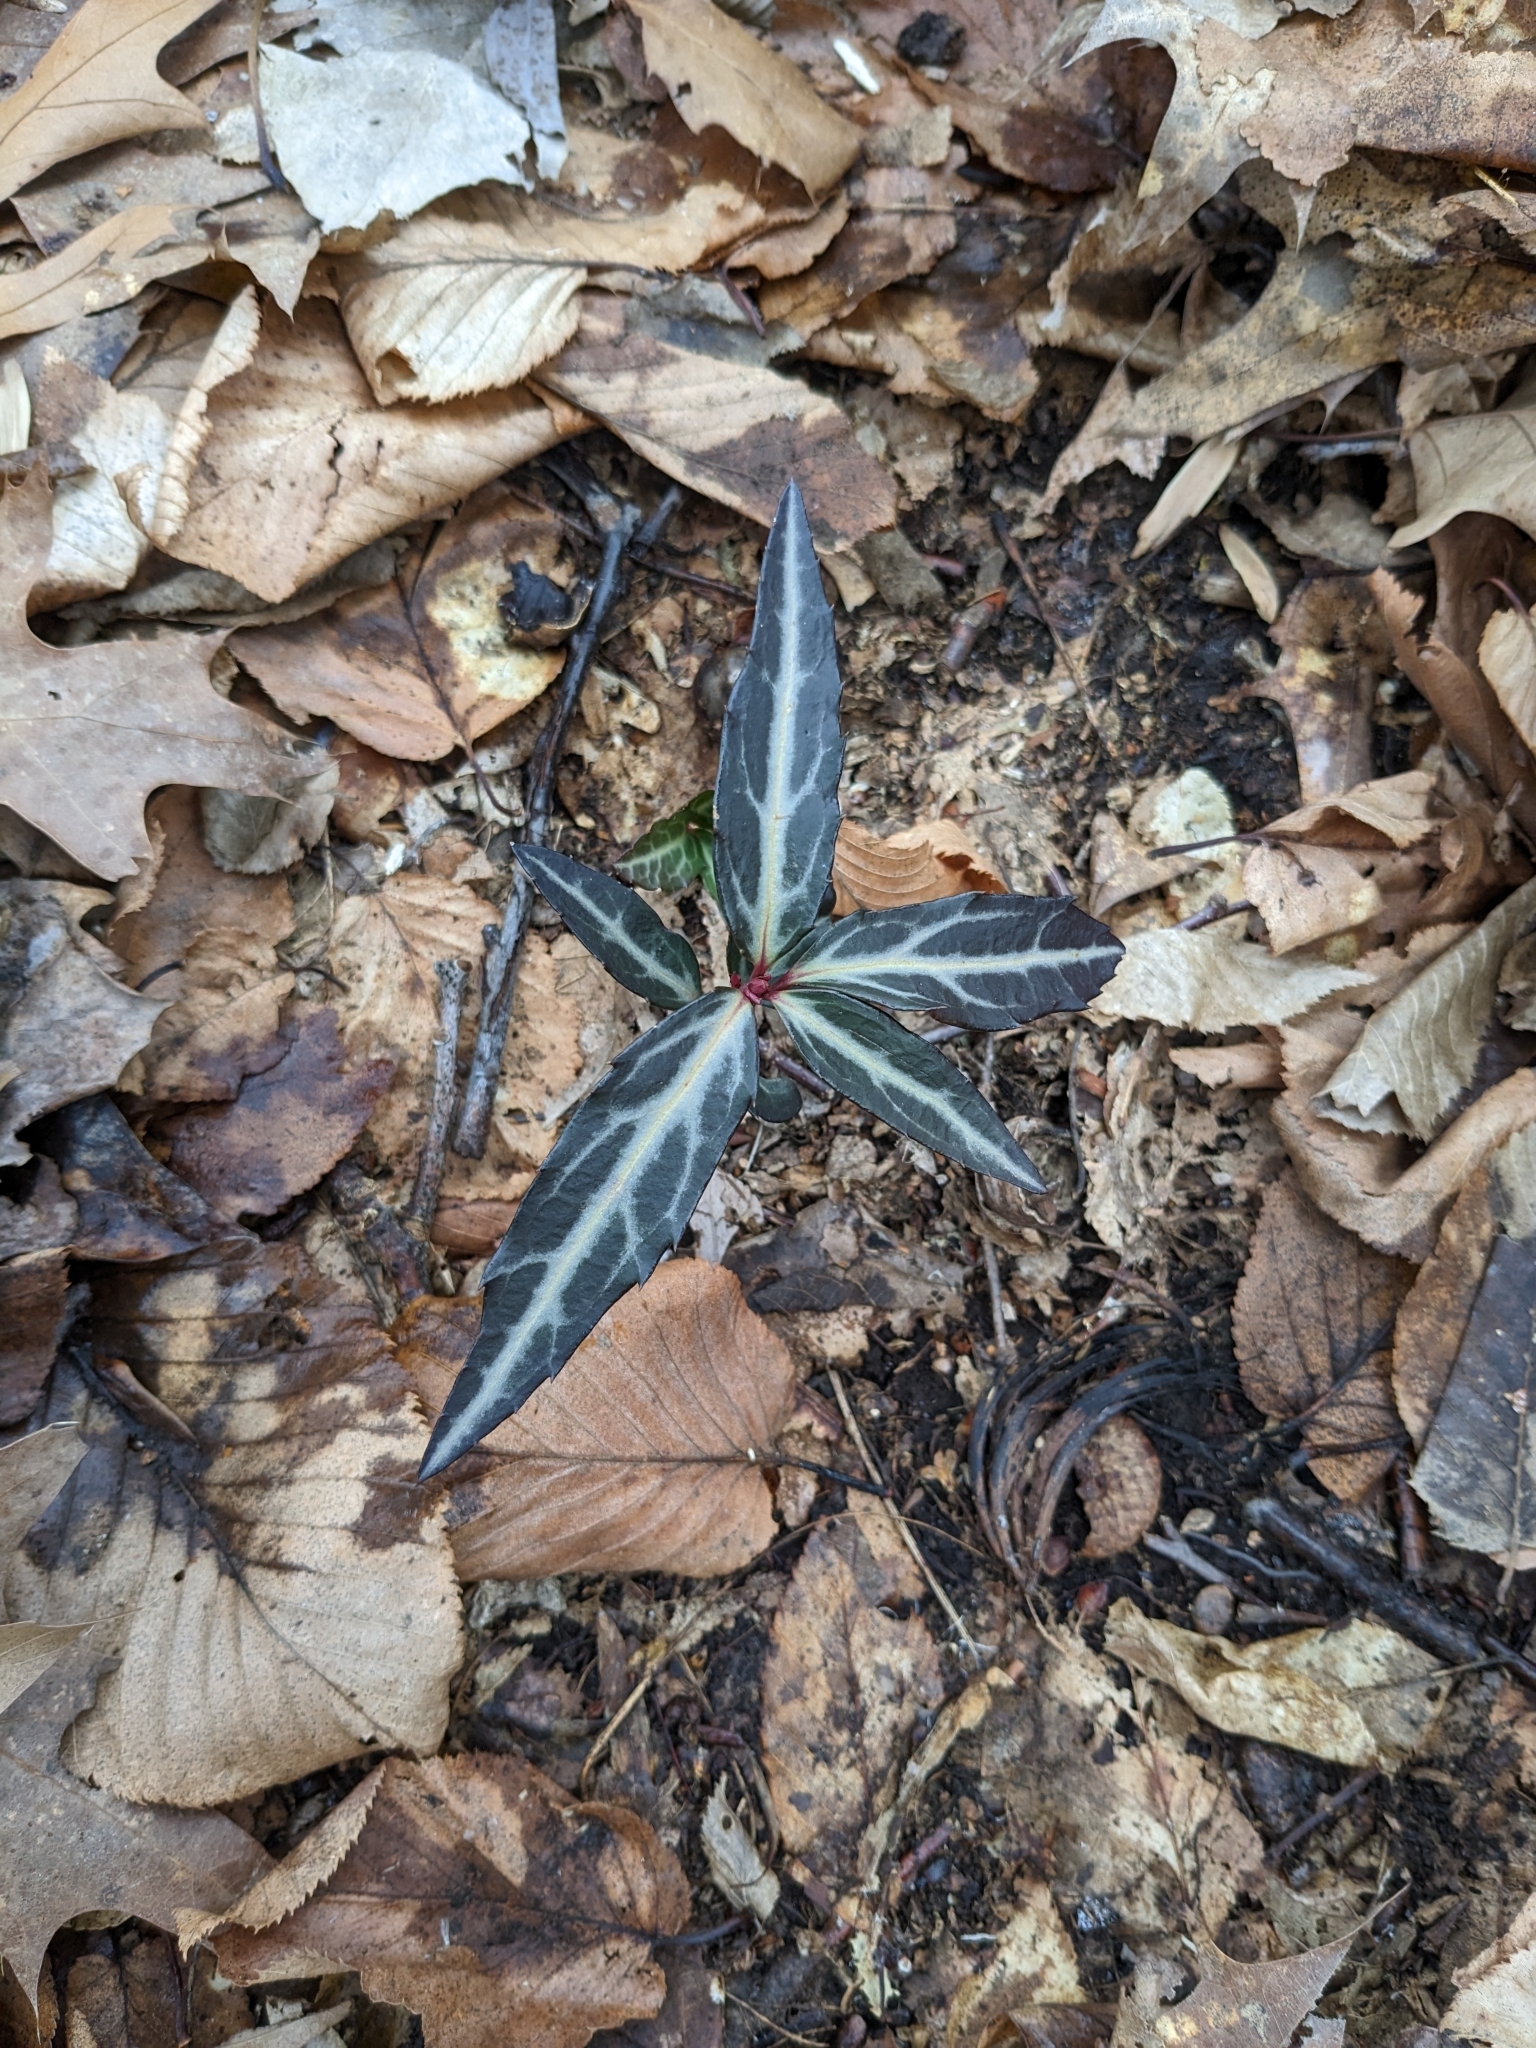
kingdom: Plantae
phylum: Tracheophyta
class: Magnoliopsida
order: Ericales
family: Ericaceae
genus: Chimaphila
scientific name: Chimaphila maculata
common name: Spotted pipsissewa
